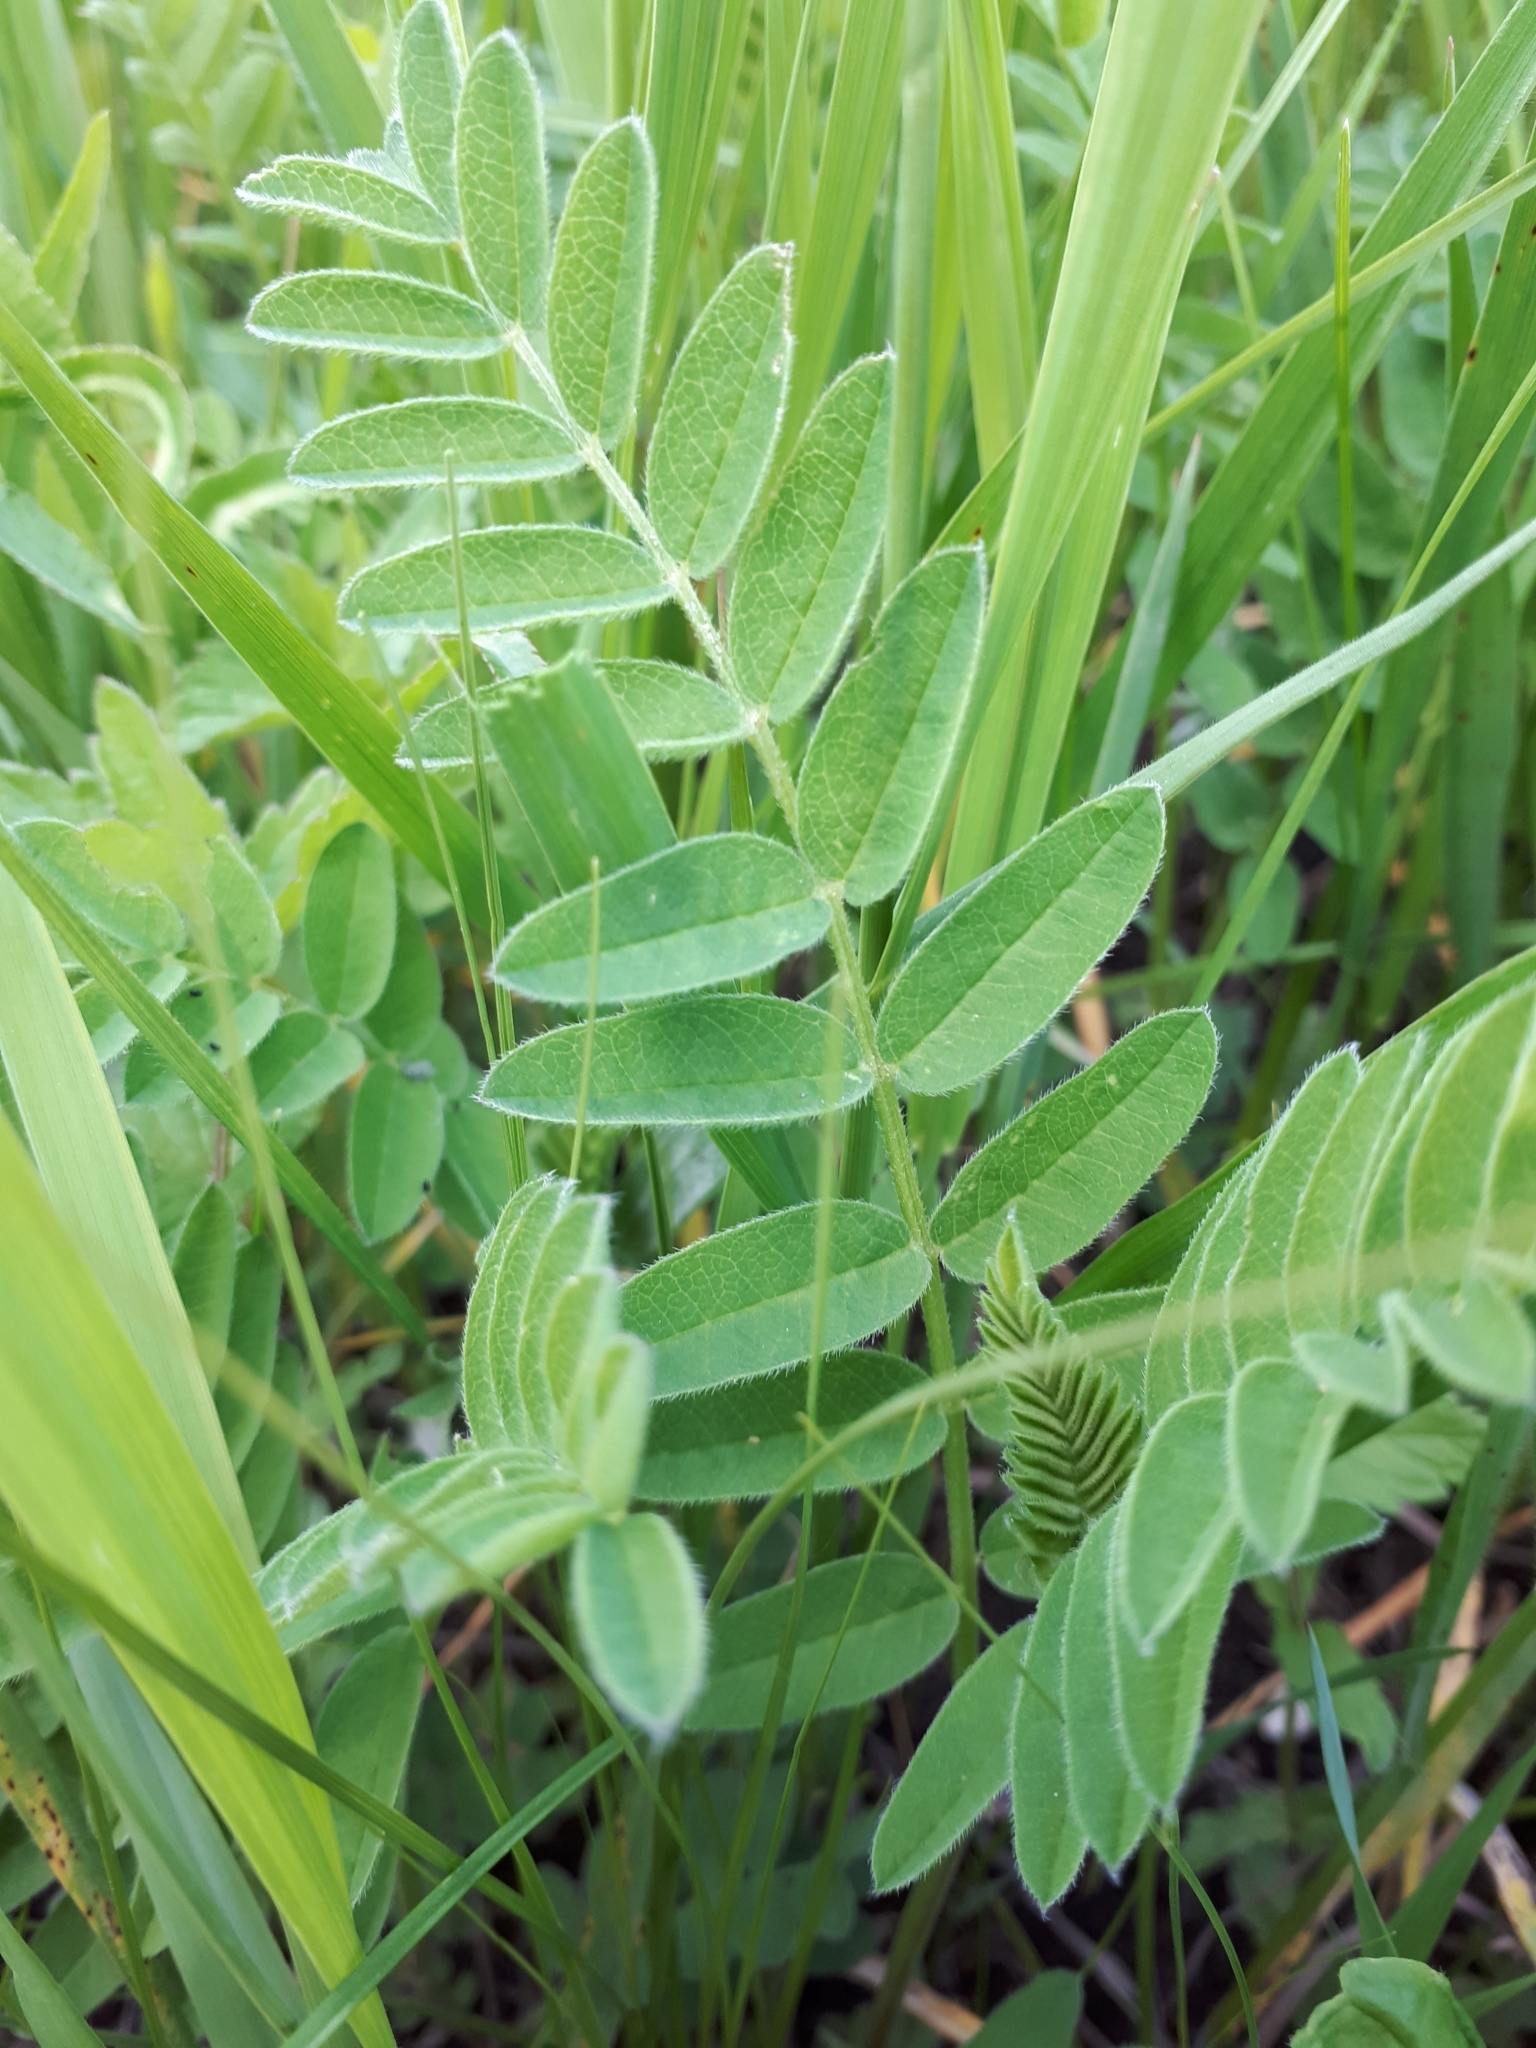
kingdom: Plantae
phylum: Tracheophyta
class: Magnoliopsida
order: Fabales
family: Fabaceae
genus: Astragalus
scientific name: Astragalus cicer
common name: Chick-pea milk-vetch
